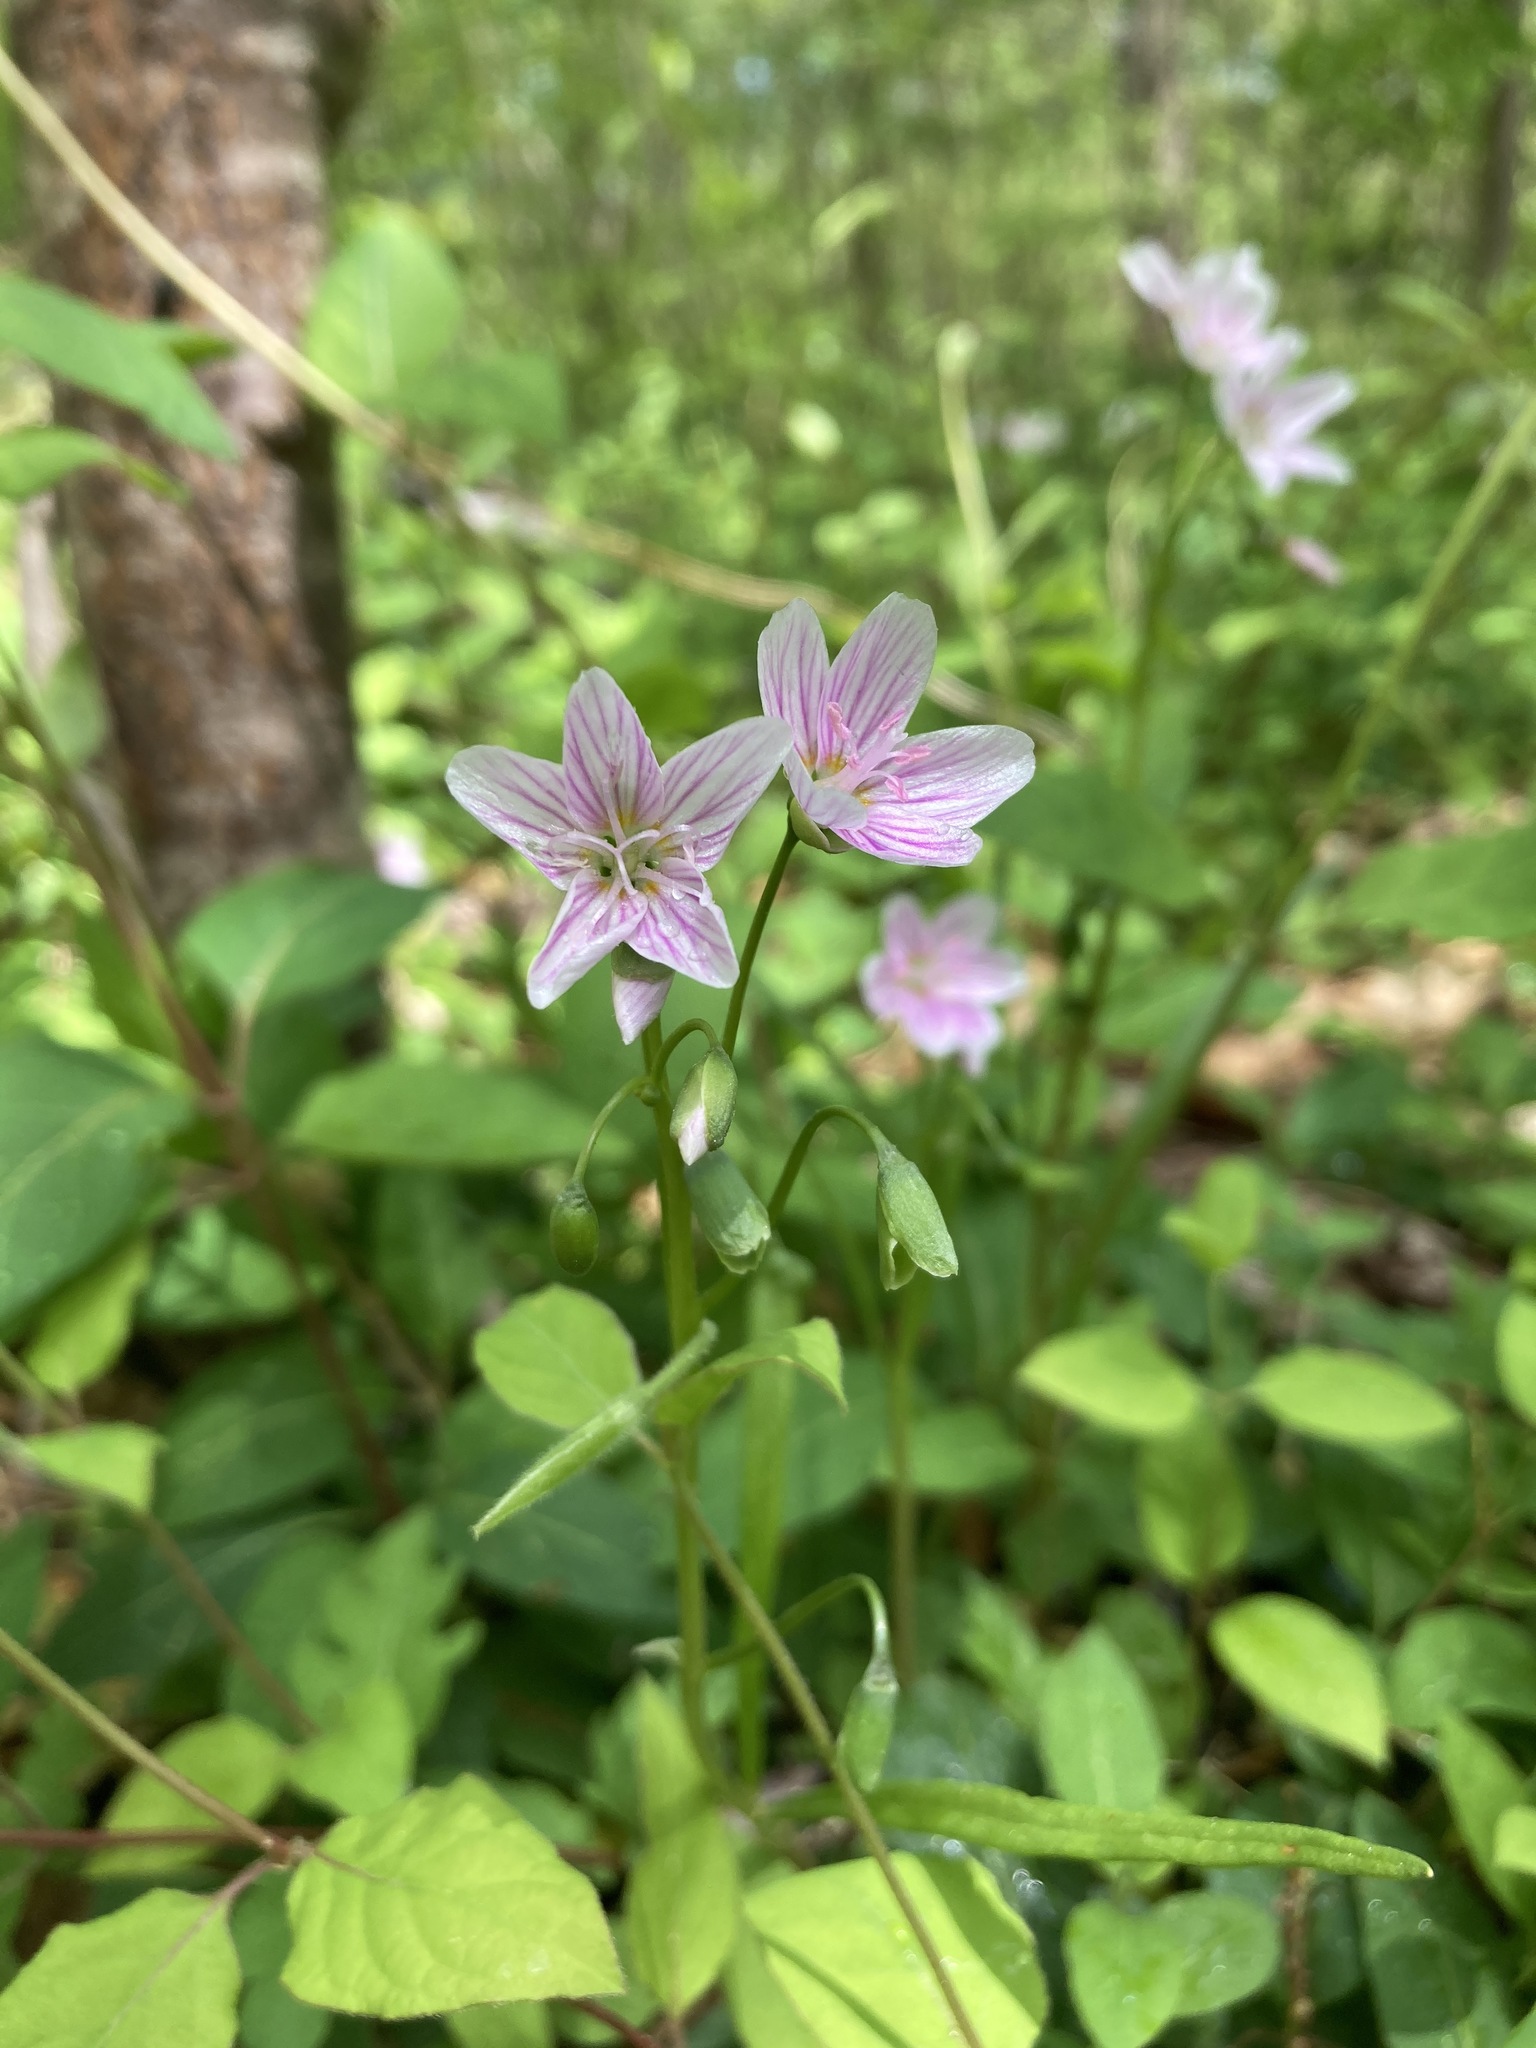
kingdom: Plantae
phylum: Tracheophyta
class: Magnoliopsida
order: Caryophyllales
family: Montiaceae
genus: Claytonia
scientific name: Claytonia virginica
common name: Virginia springbeauty
